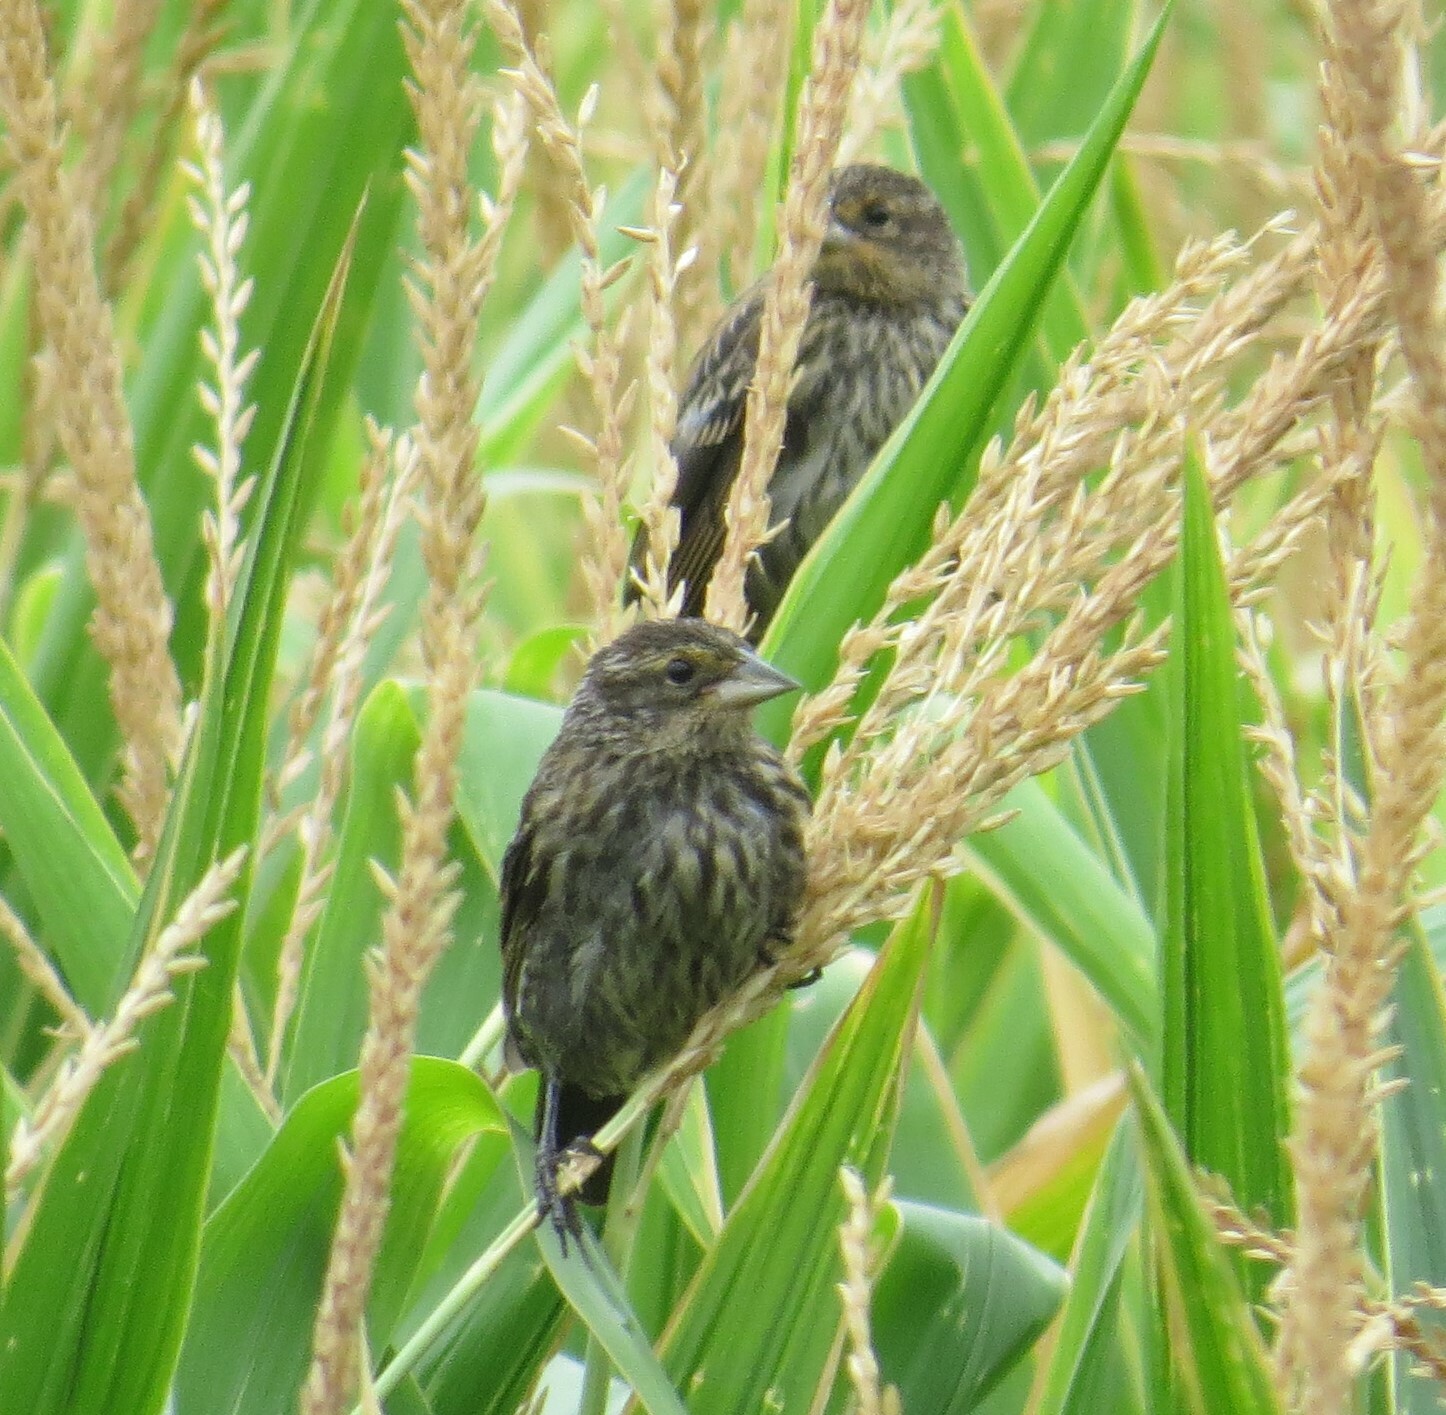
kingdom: Animalia
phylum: Chordata
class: Aves
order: Passeriformes
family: Icteridae
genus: Agelaius
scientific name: Agelaius phoeniceus
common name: Red-winged blackbird
